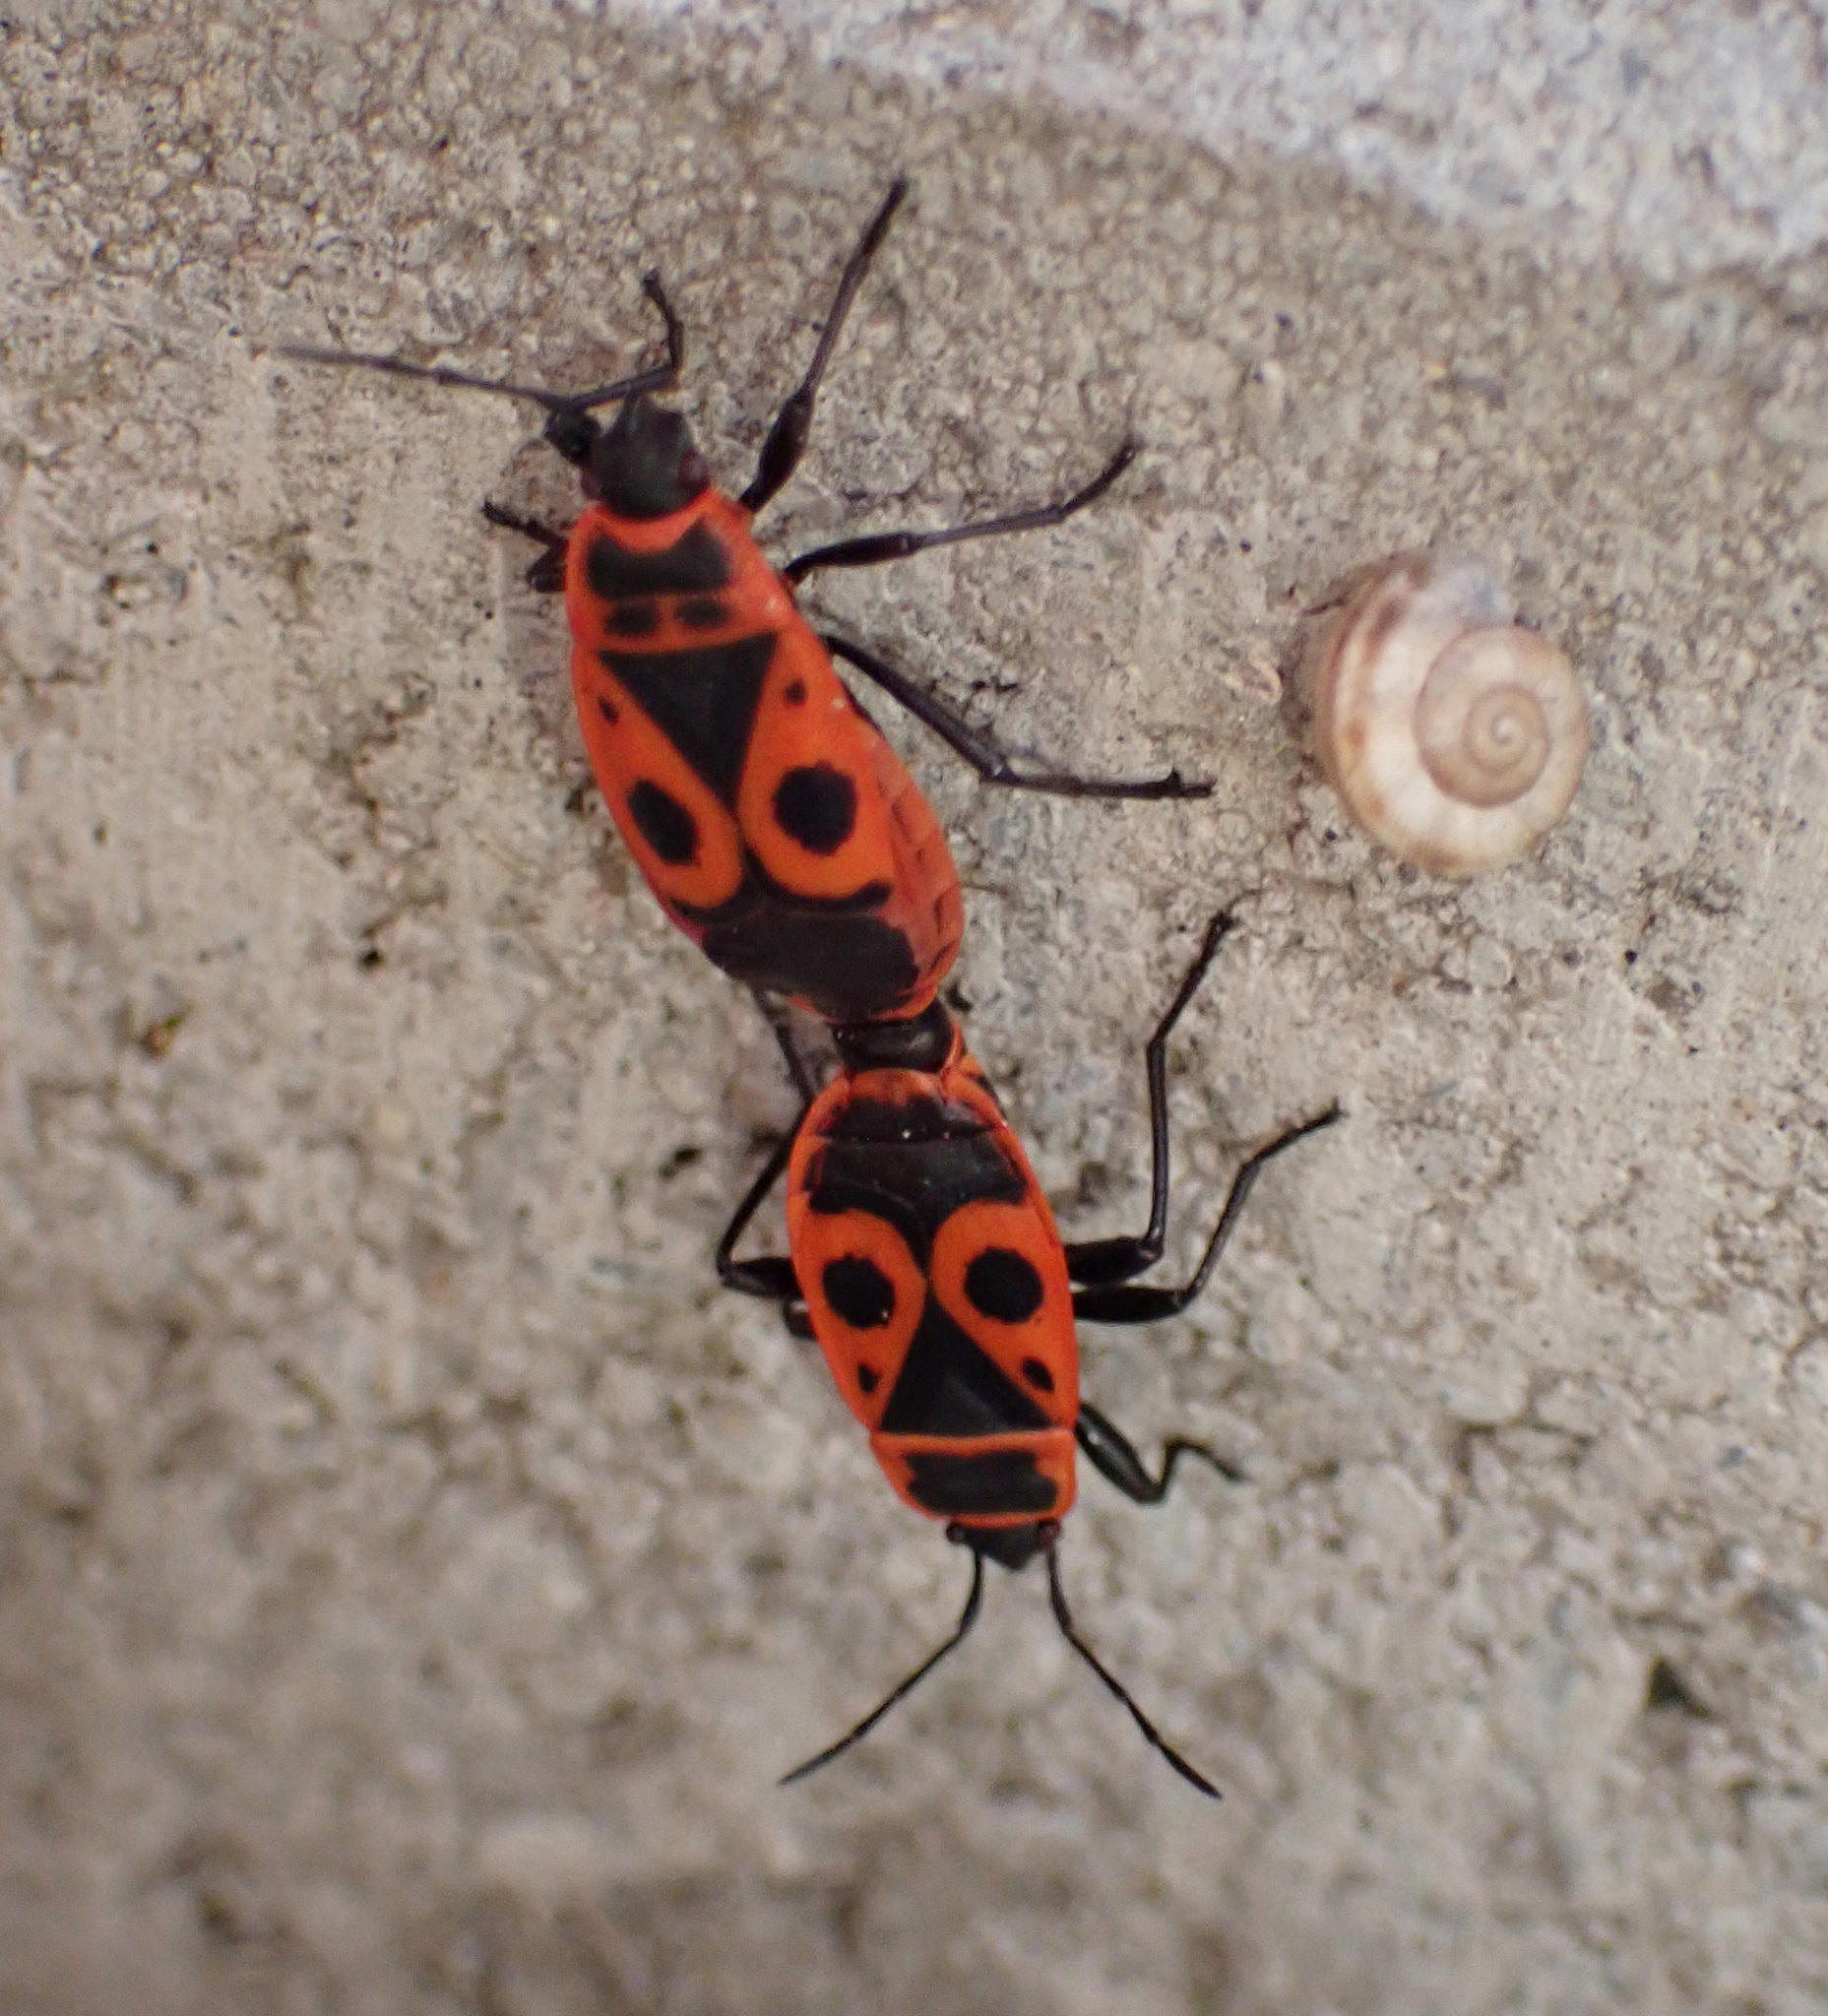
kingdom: Animalia
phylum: Arthropoda
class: Insecta
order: Hemiptera
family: Pyrrhocoridae
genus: Pyrrhocoris
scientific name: Pyrrhocoris apterus
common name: Firebug
